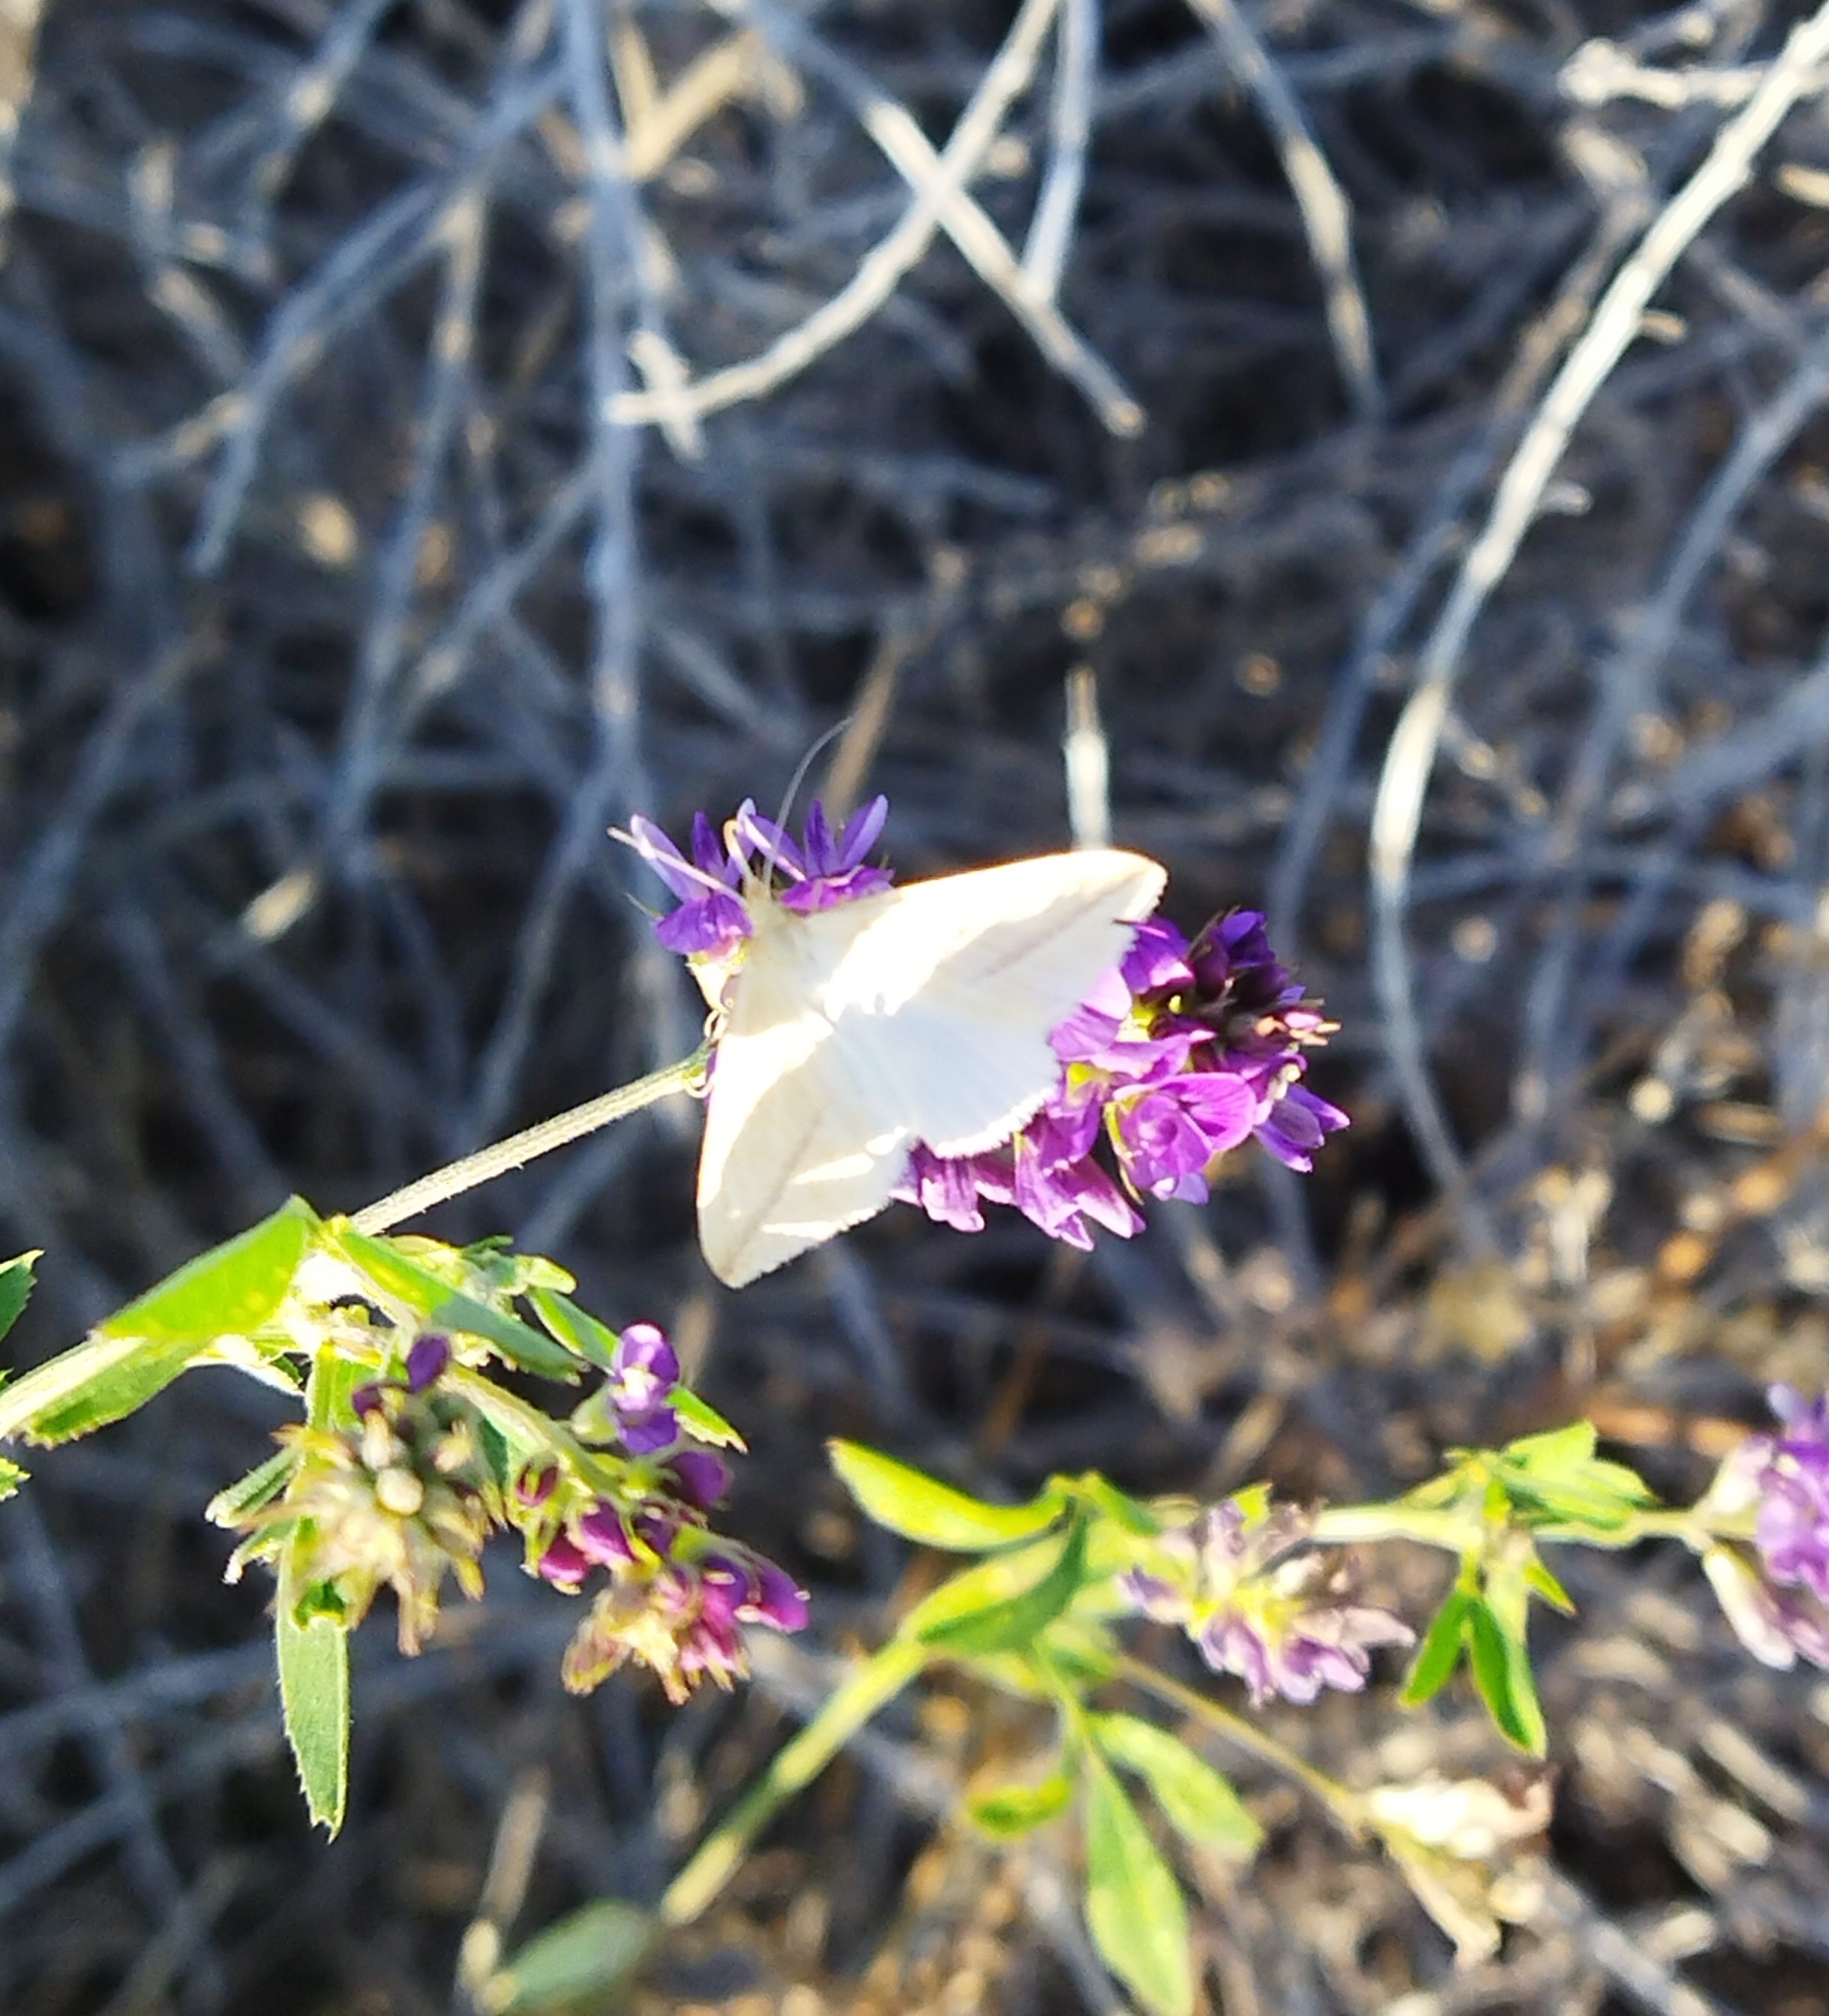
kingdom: Animalia
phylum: Arthropoda
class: Insecta
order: Lepidoptera
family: Geometridae
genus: Rhodometra
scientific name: Rhodometra sacraria
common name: Vestal
